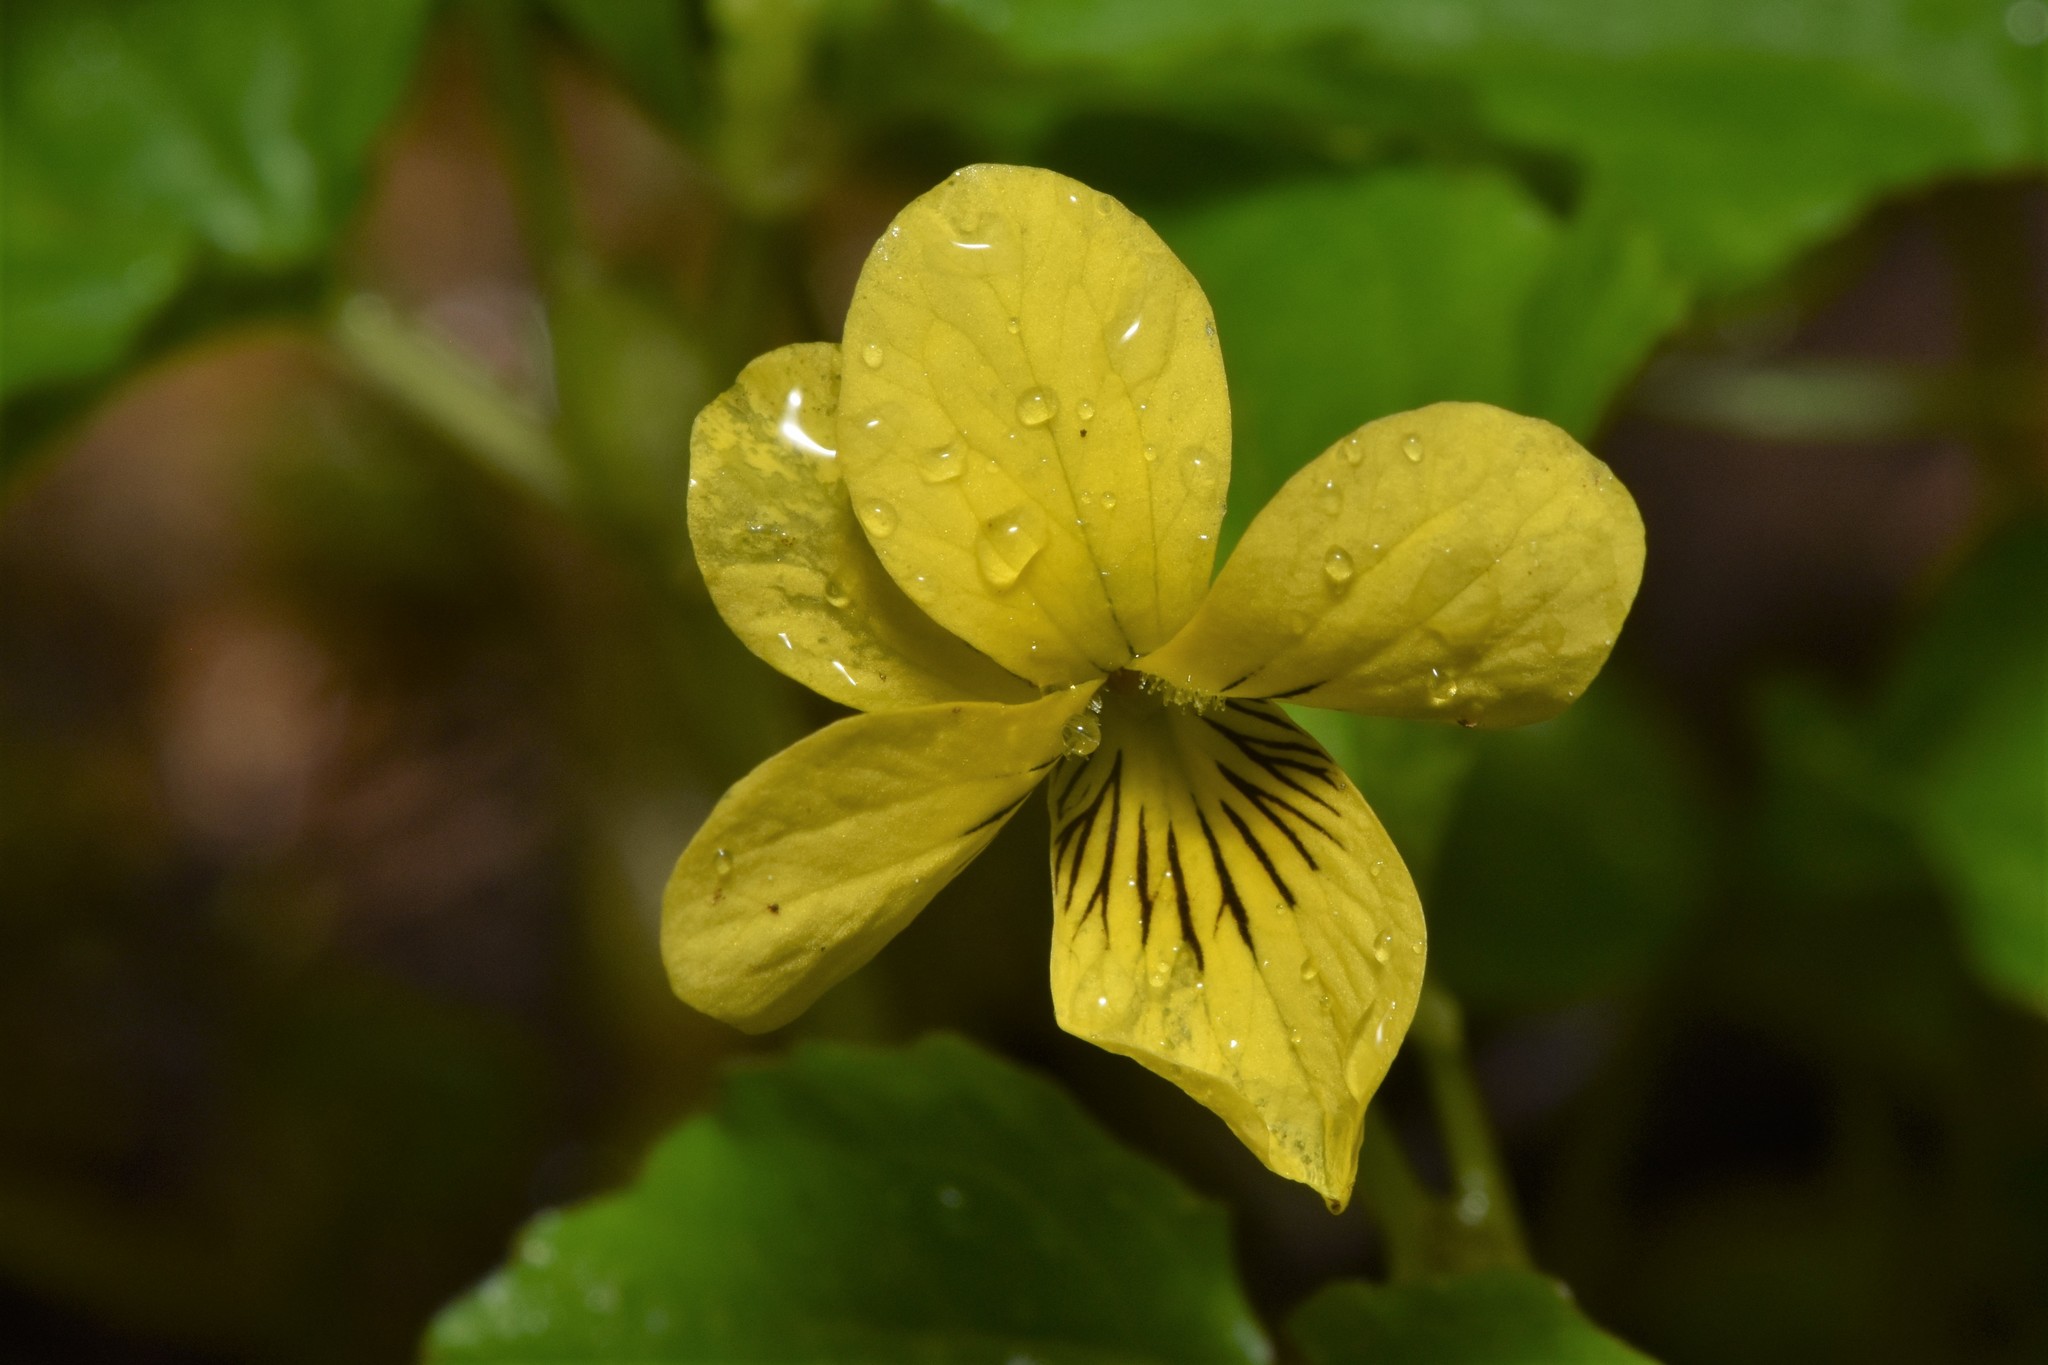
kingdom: Plantae
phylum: Tracheophyta
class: Magnoliopsida
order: Malpighiales
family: Violaceae
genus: Viola
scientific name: Viola glabella
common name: Stream violet
